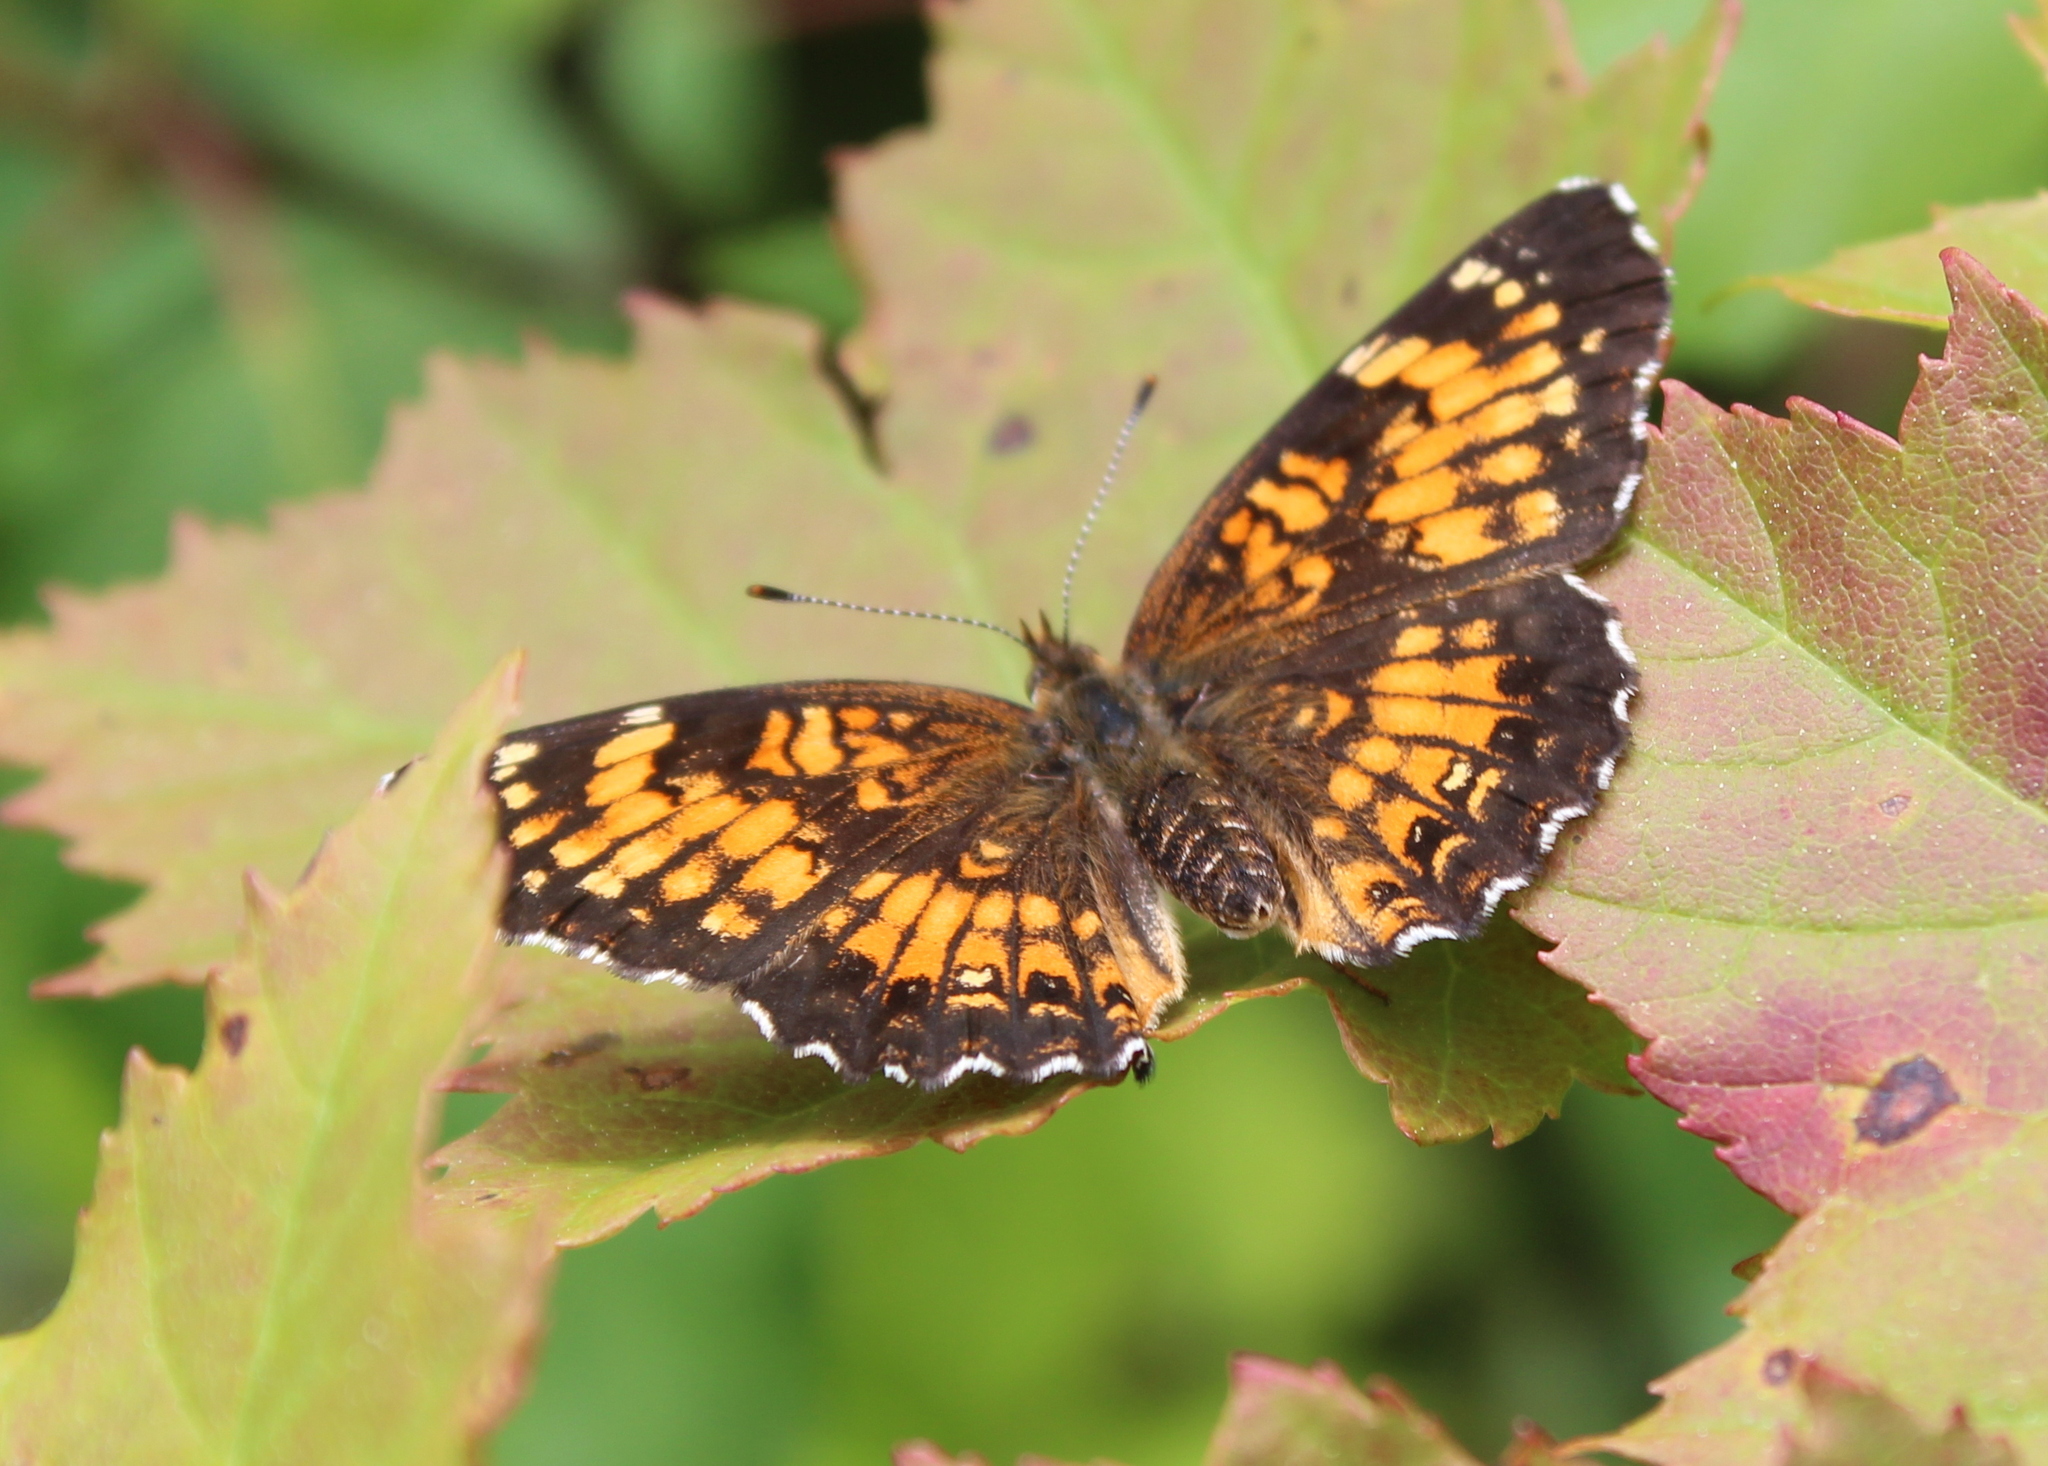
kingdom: Animalia
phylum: Arthropoda
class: Insecta
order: Lepidoptera
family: Nymphalidae
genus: Chlosyne
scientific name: Chlosyne harrisii
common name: Harris's checkerspot
